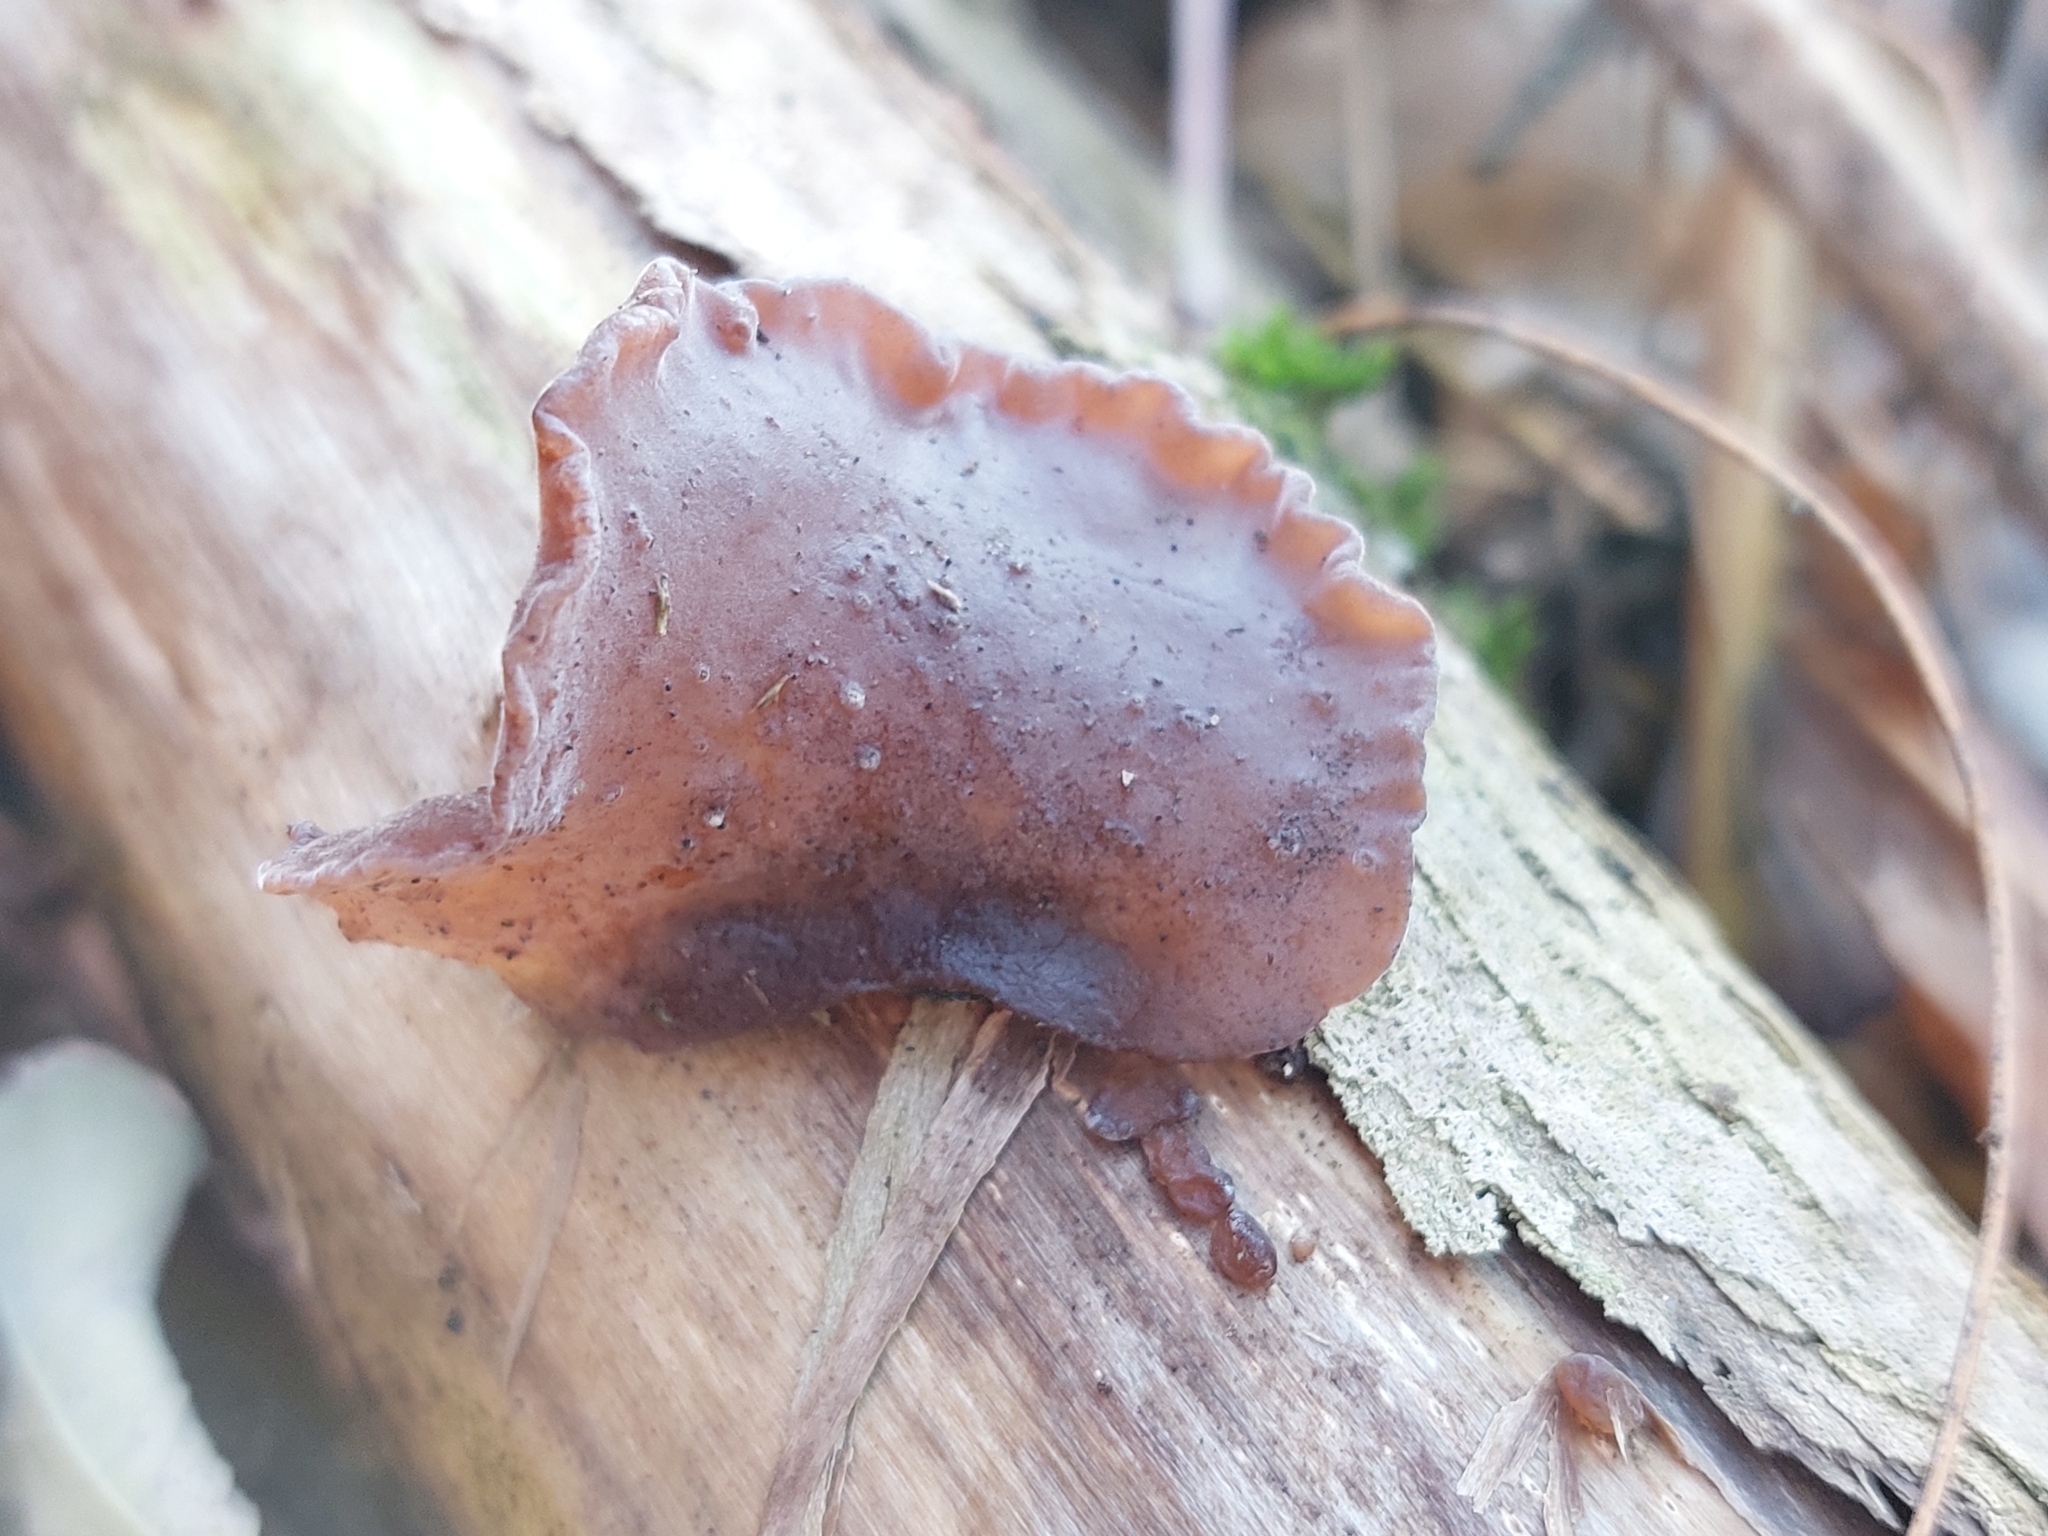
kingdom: Fungi
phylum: Basidiomycota
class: Agaricomycetes
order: Auriculariales
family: Auriculariaceae
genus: Auricularia
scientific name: Auricularia auricula-judae
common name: Jelly ear
